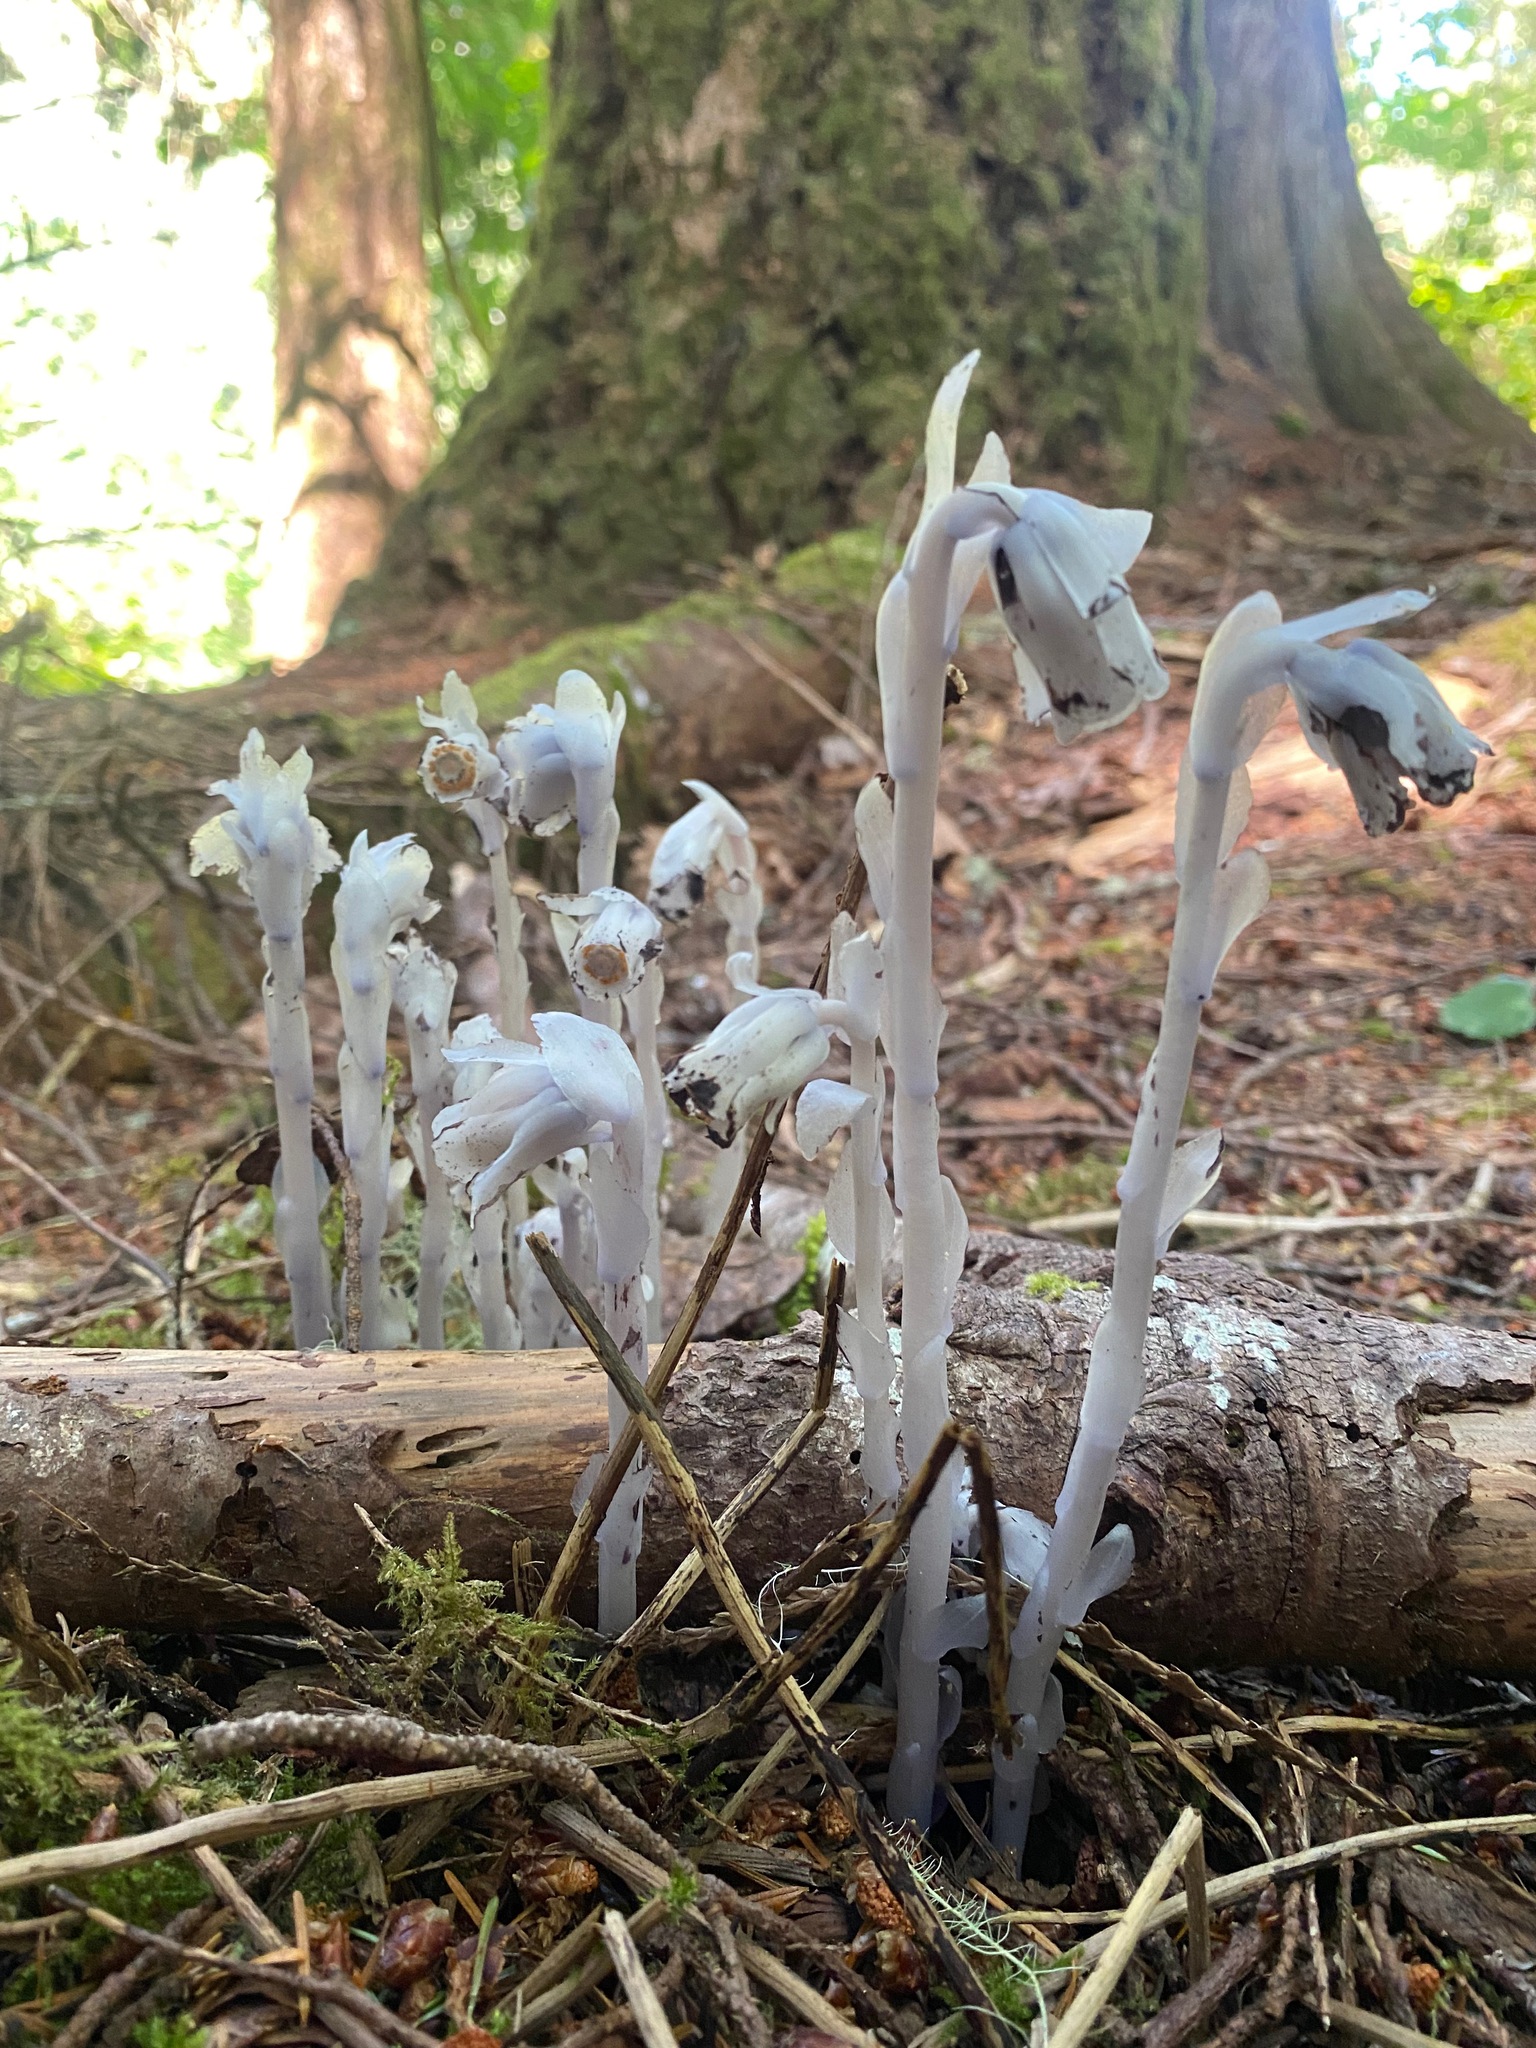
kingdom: Plantae
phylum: Tracheophyta
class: Magnoliopsida
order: Ericales
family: Ericaceae
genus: Monotropa
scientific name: Monotropa uniflora
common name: Convulsion root
